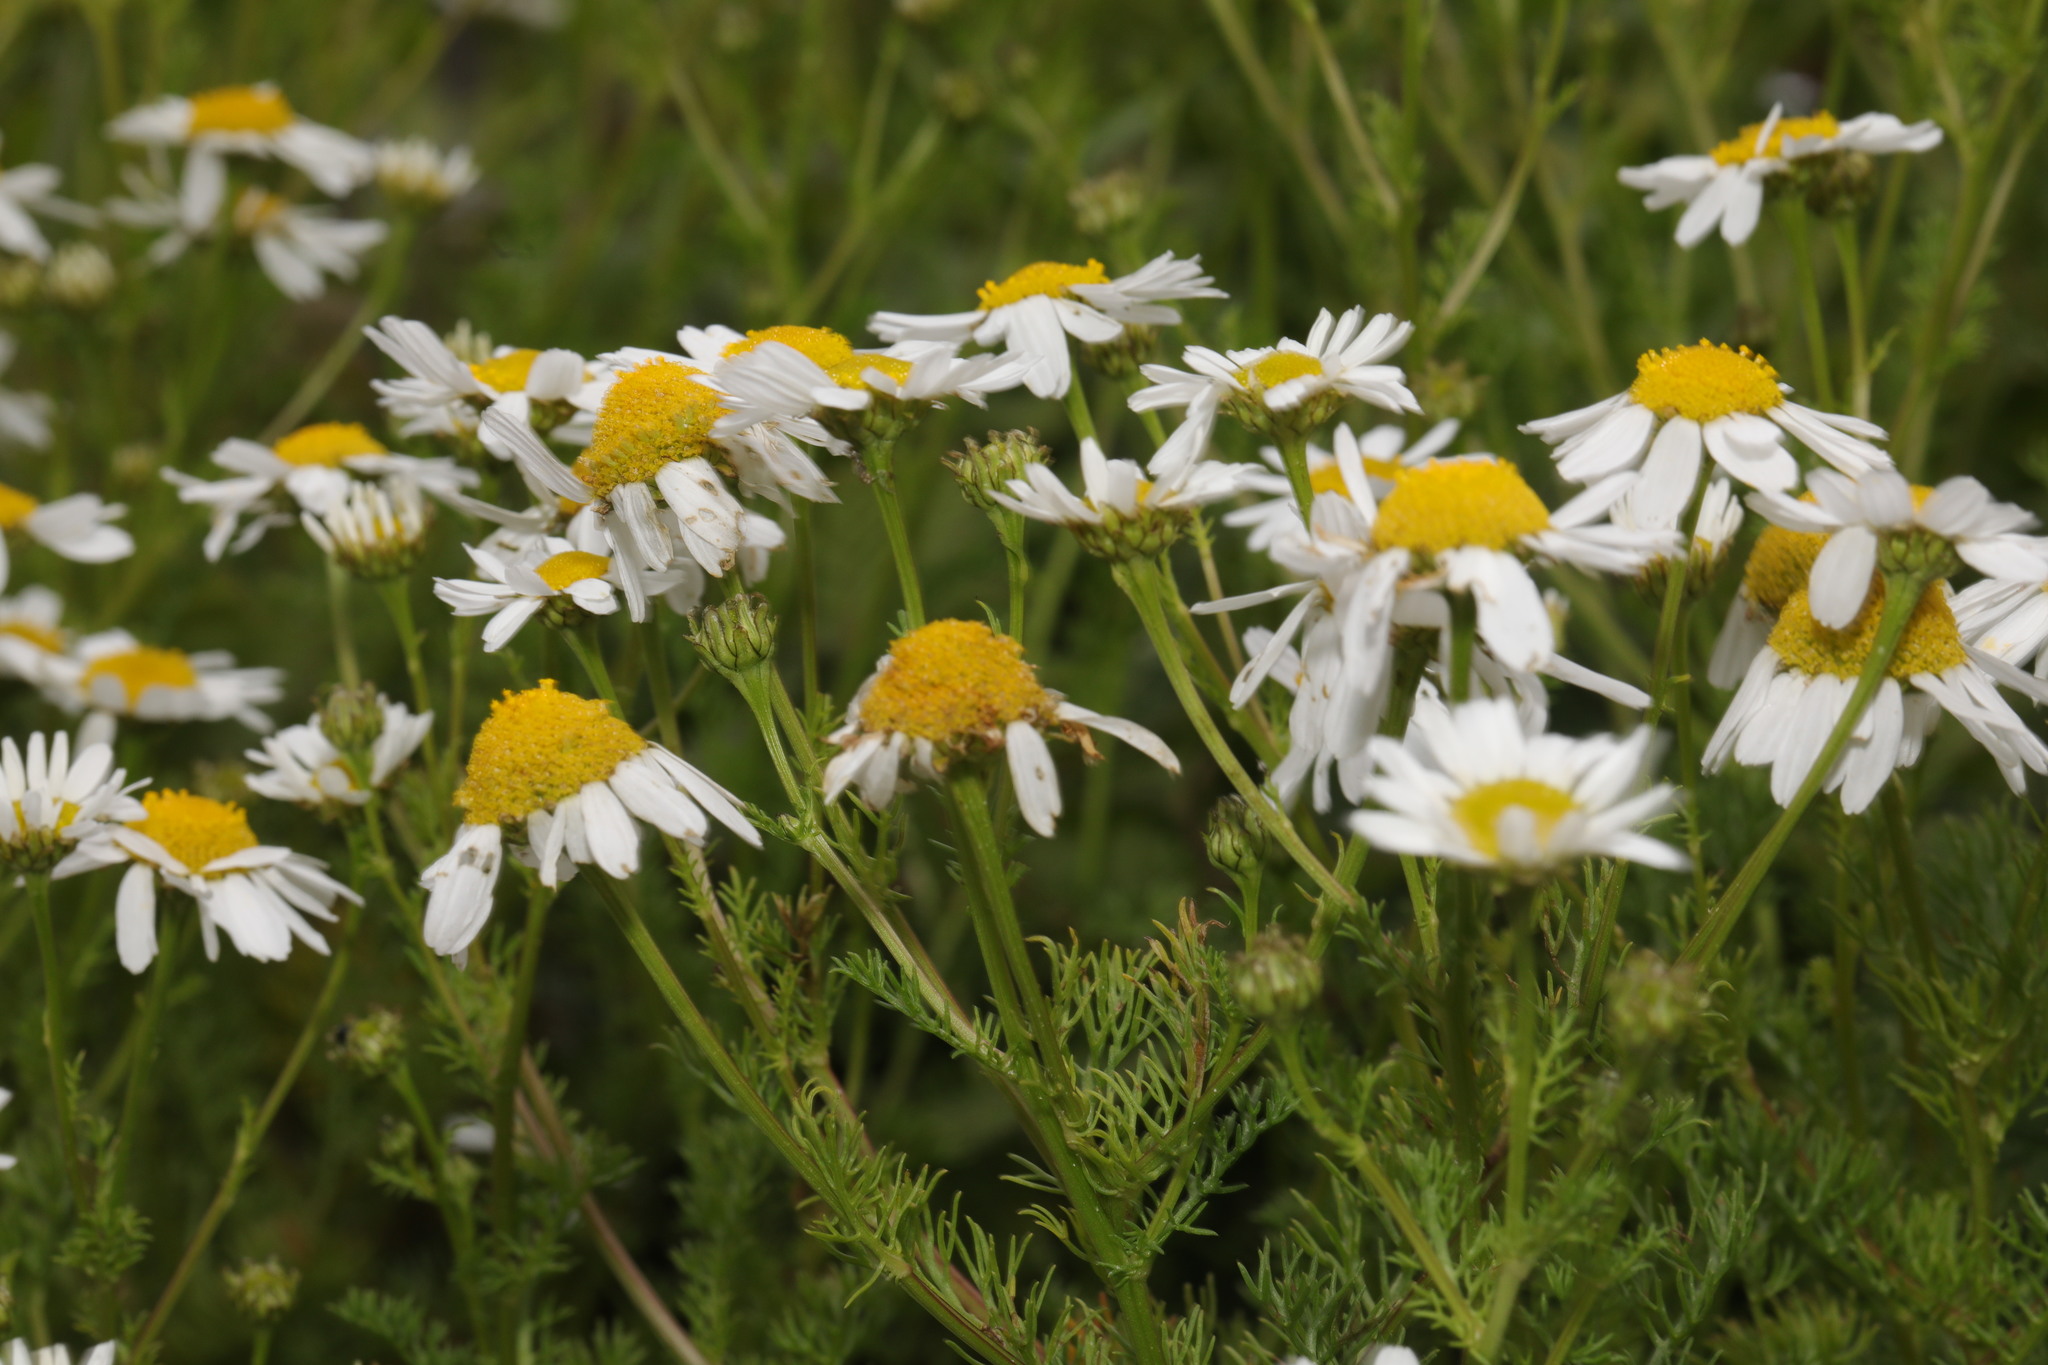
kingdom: Plantae
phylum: Tracheophyta
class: Magnoliopsida
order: Asterales
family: Asteraceae
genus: Tripleurospermum
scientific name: Tripleurospermum maritimum
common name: Sea mayweed
